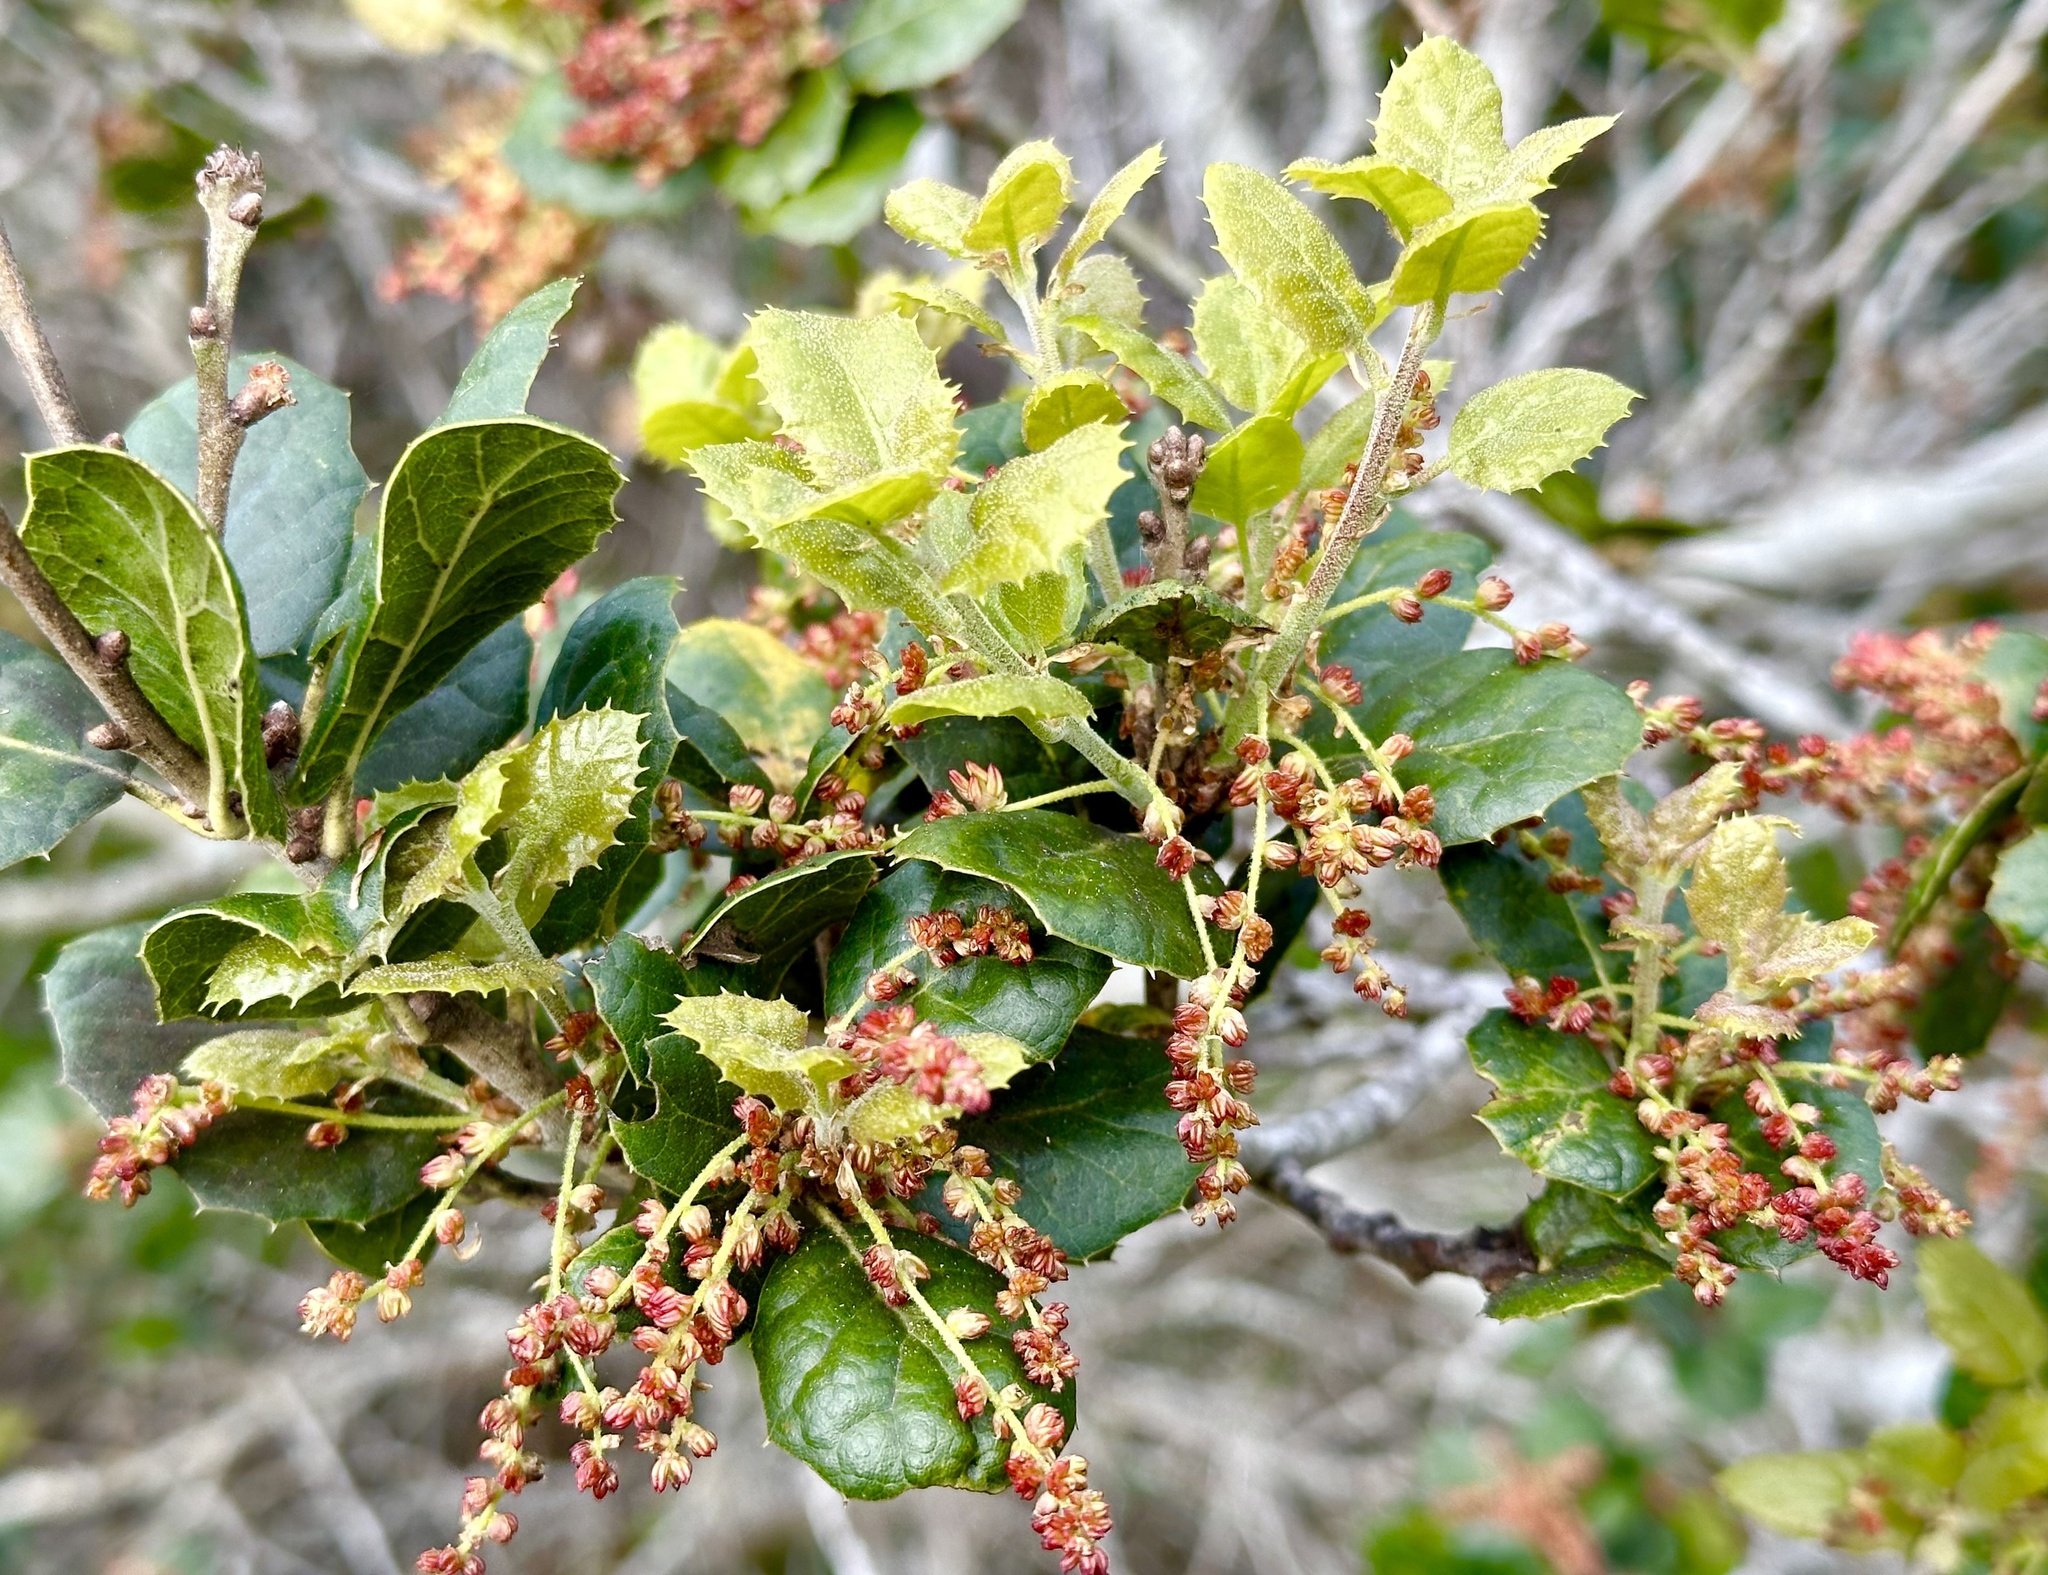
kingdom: Animalia
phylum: Arthropoda
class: Insecta
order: Hymenoptera
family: Cynipidae
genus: Dryocosmus
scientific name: Dryocosmus
